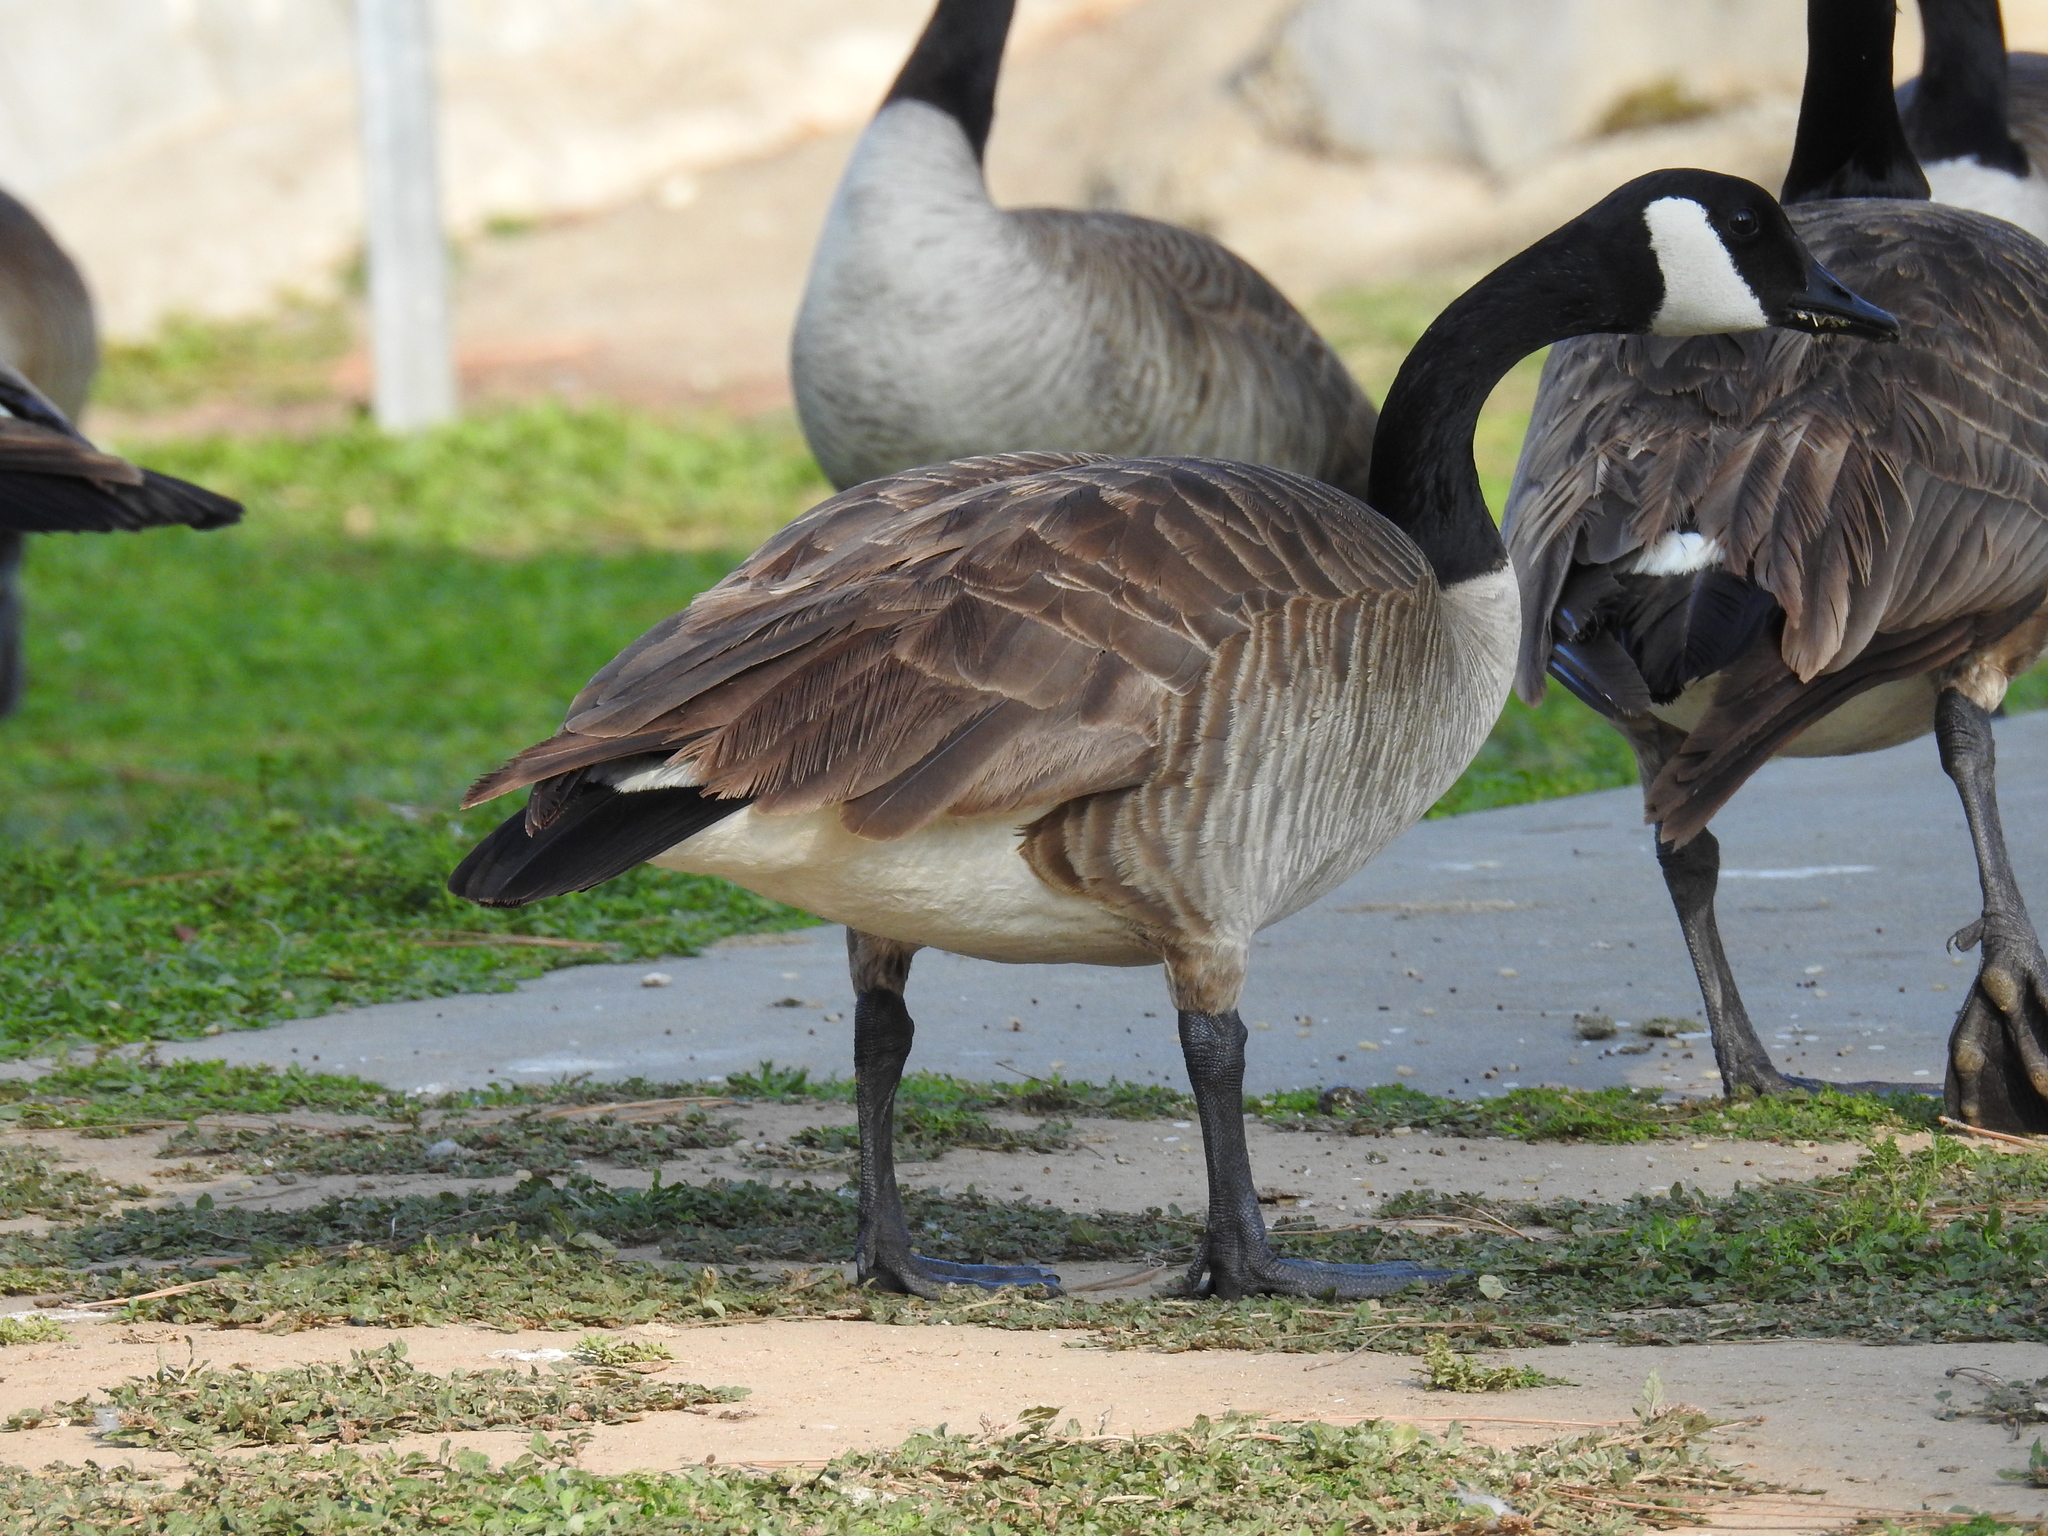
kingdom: Animalia
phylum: Chordata
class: Aves
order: Anseriformes
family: Anatidae
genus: Branta
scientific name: Branta canadensis
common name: Canada goose
